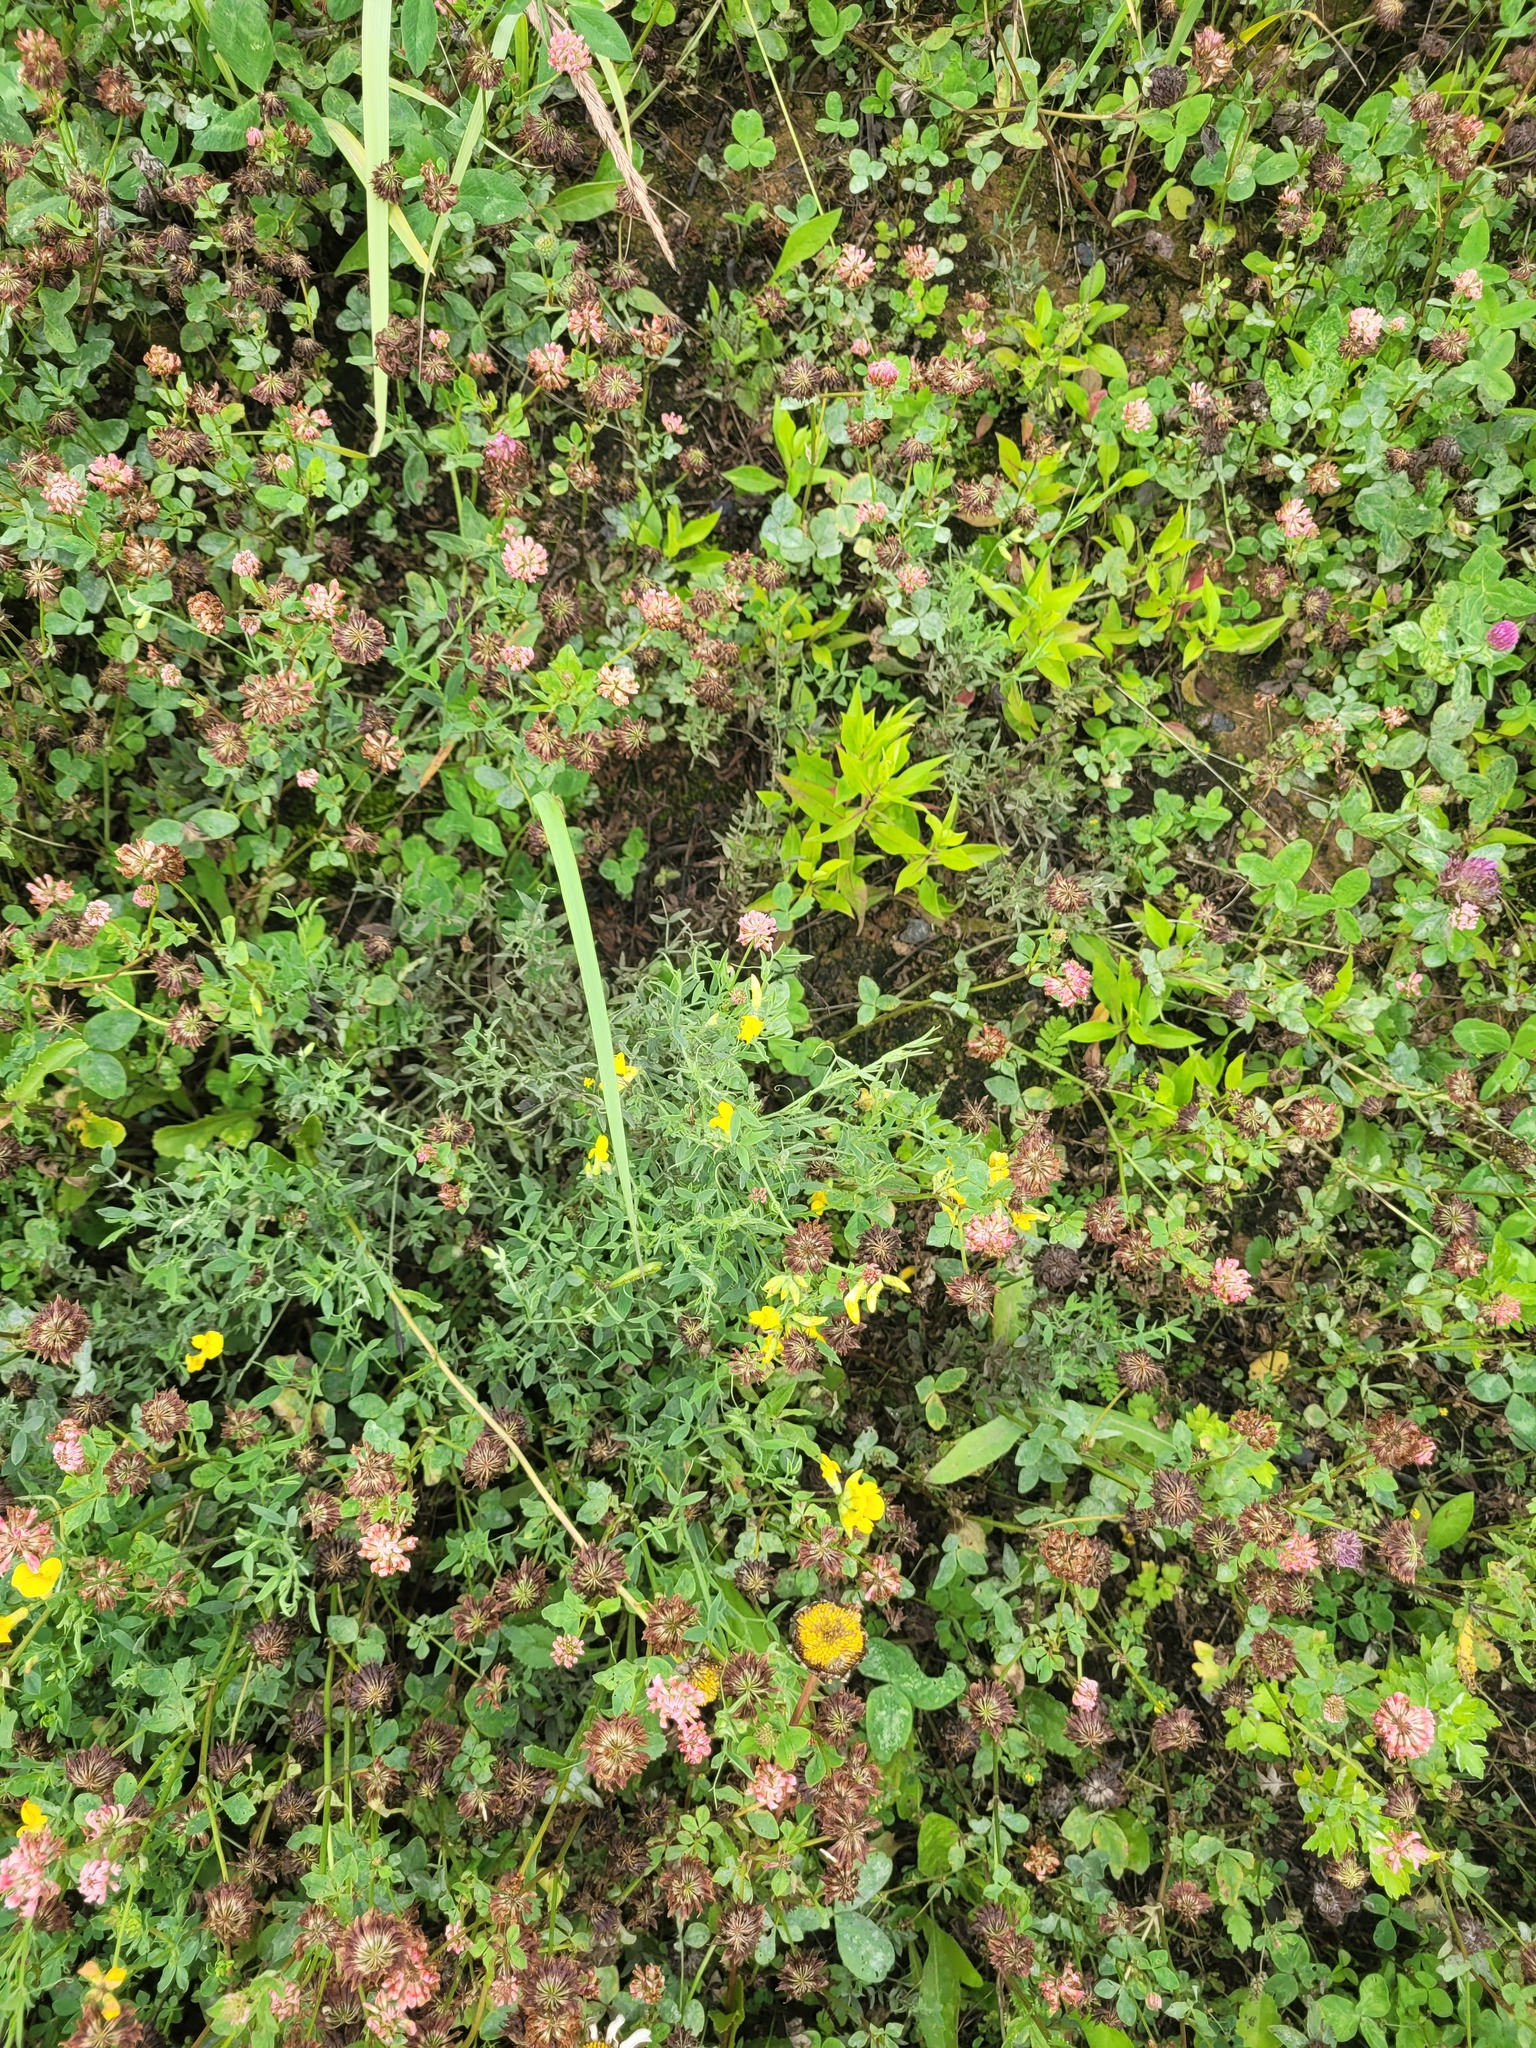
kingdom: Plantae
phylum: Tracheophyta
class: Magnoliopsida
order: Fabales
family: Fabaceae
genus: Lathyrus
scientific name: Lathyrus pratensis
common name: Meadow vetchling
